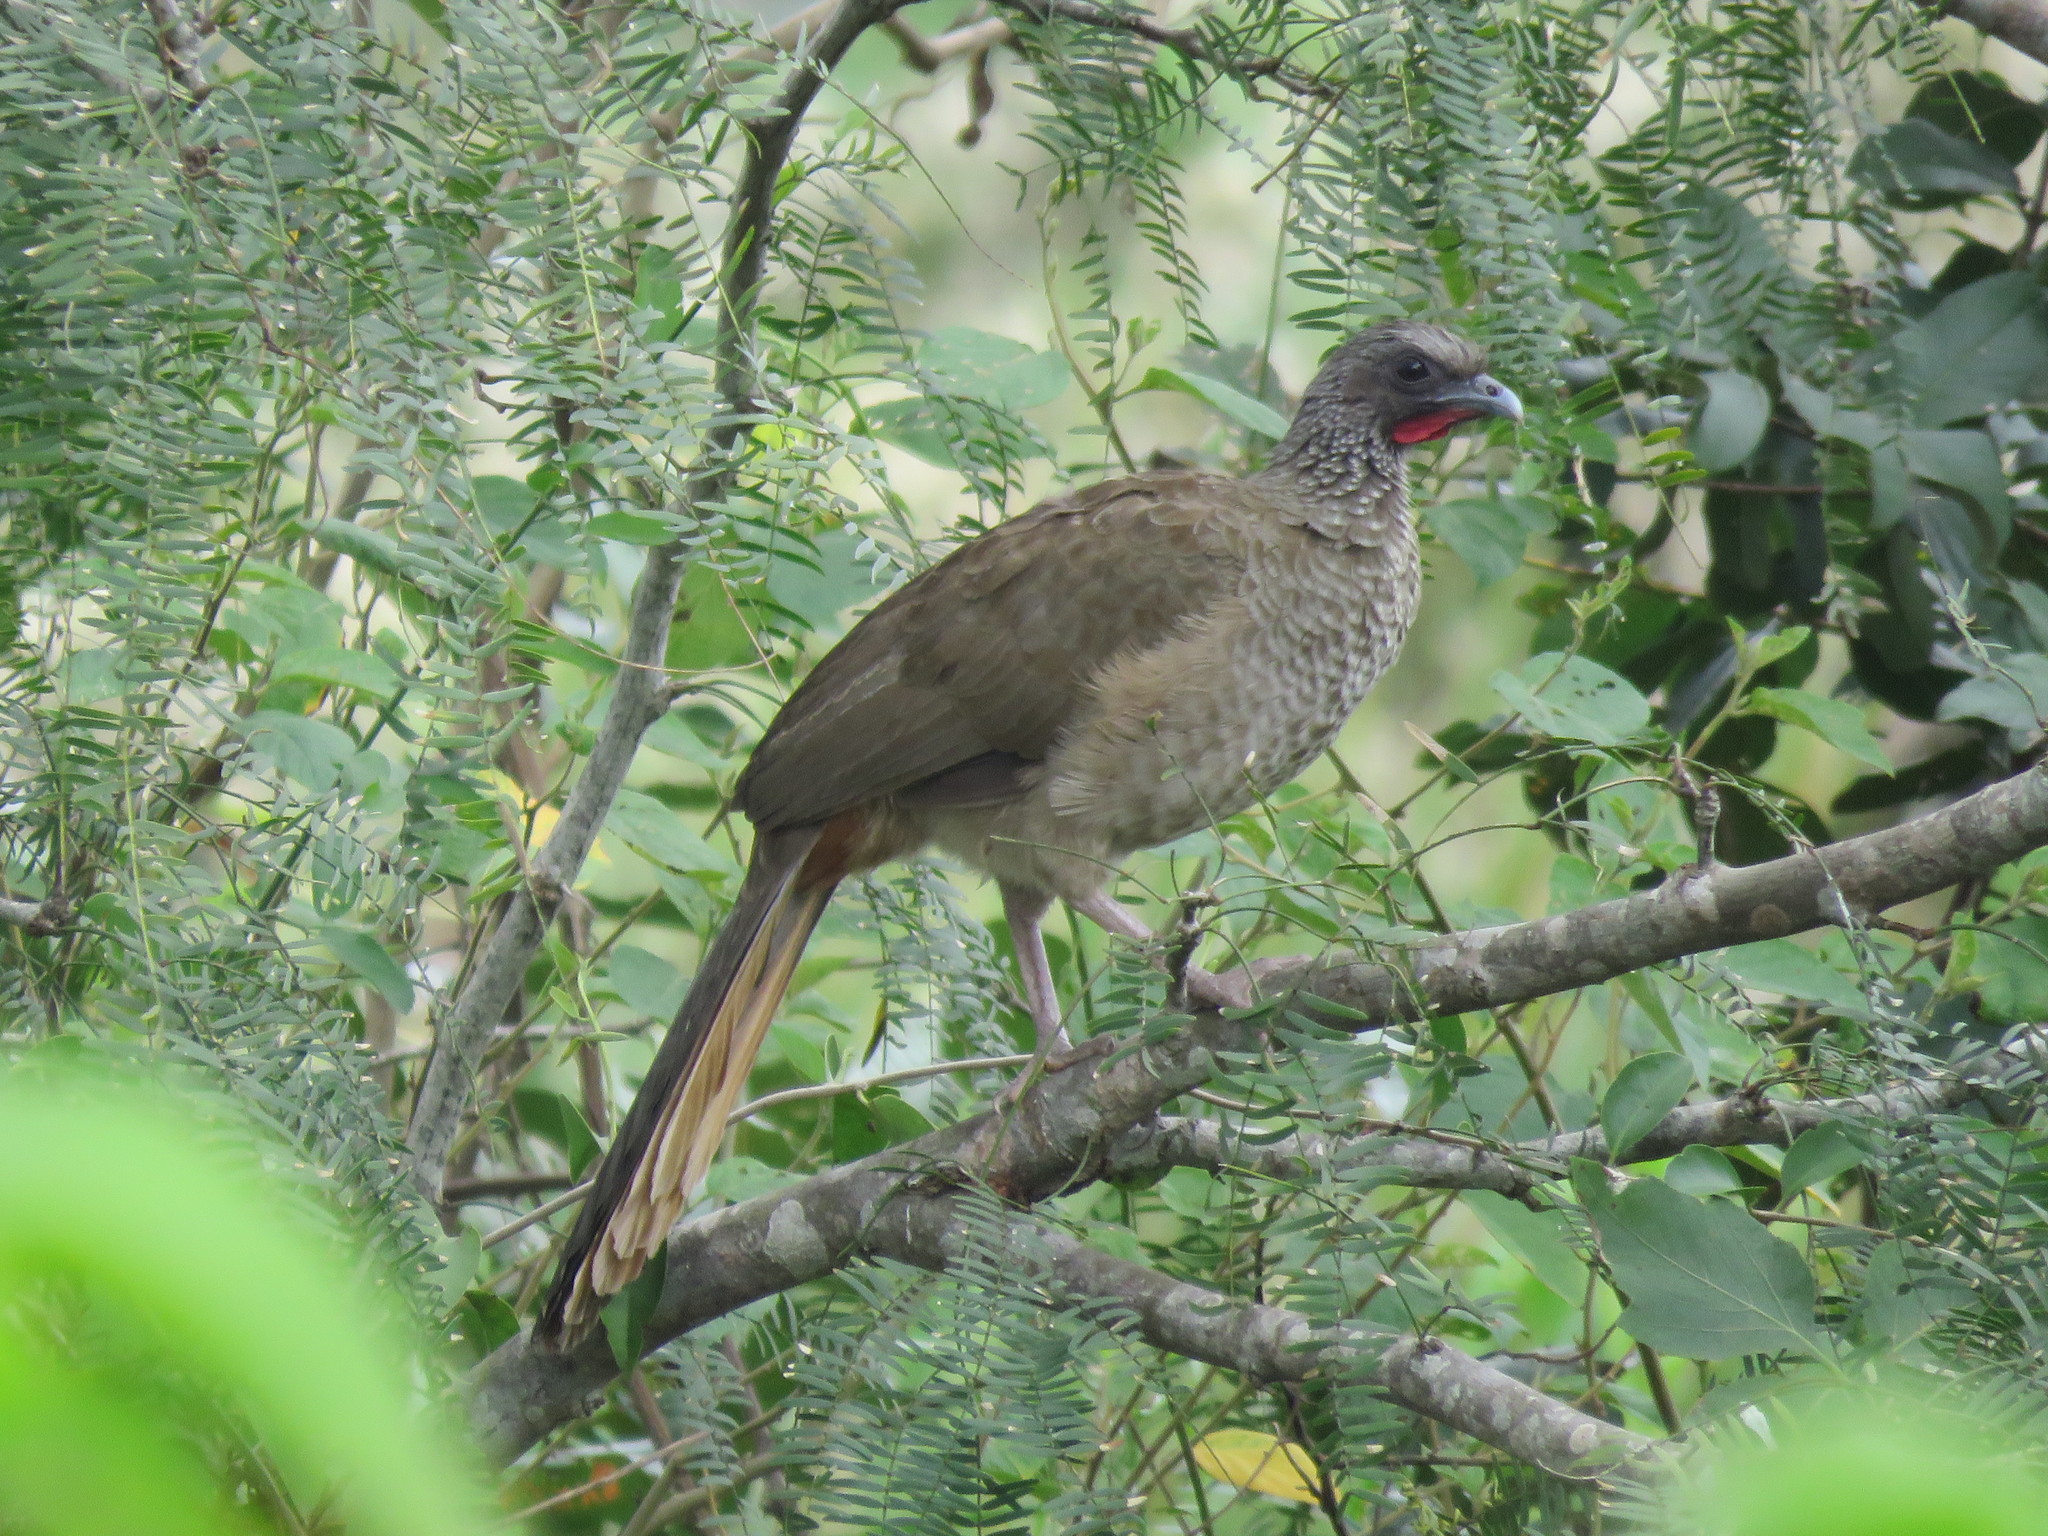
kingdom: Animalia
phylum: Chordata
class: Aves
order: Galliformes
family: Cracidae
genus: Ortalis
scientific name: Ortalis guttata
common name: Speckled chachalaca
